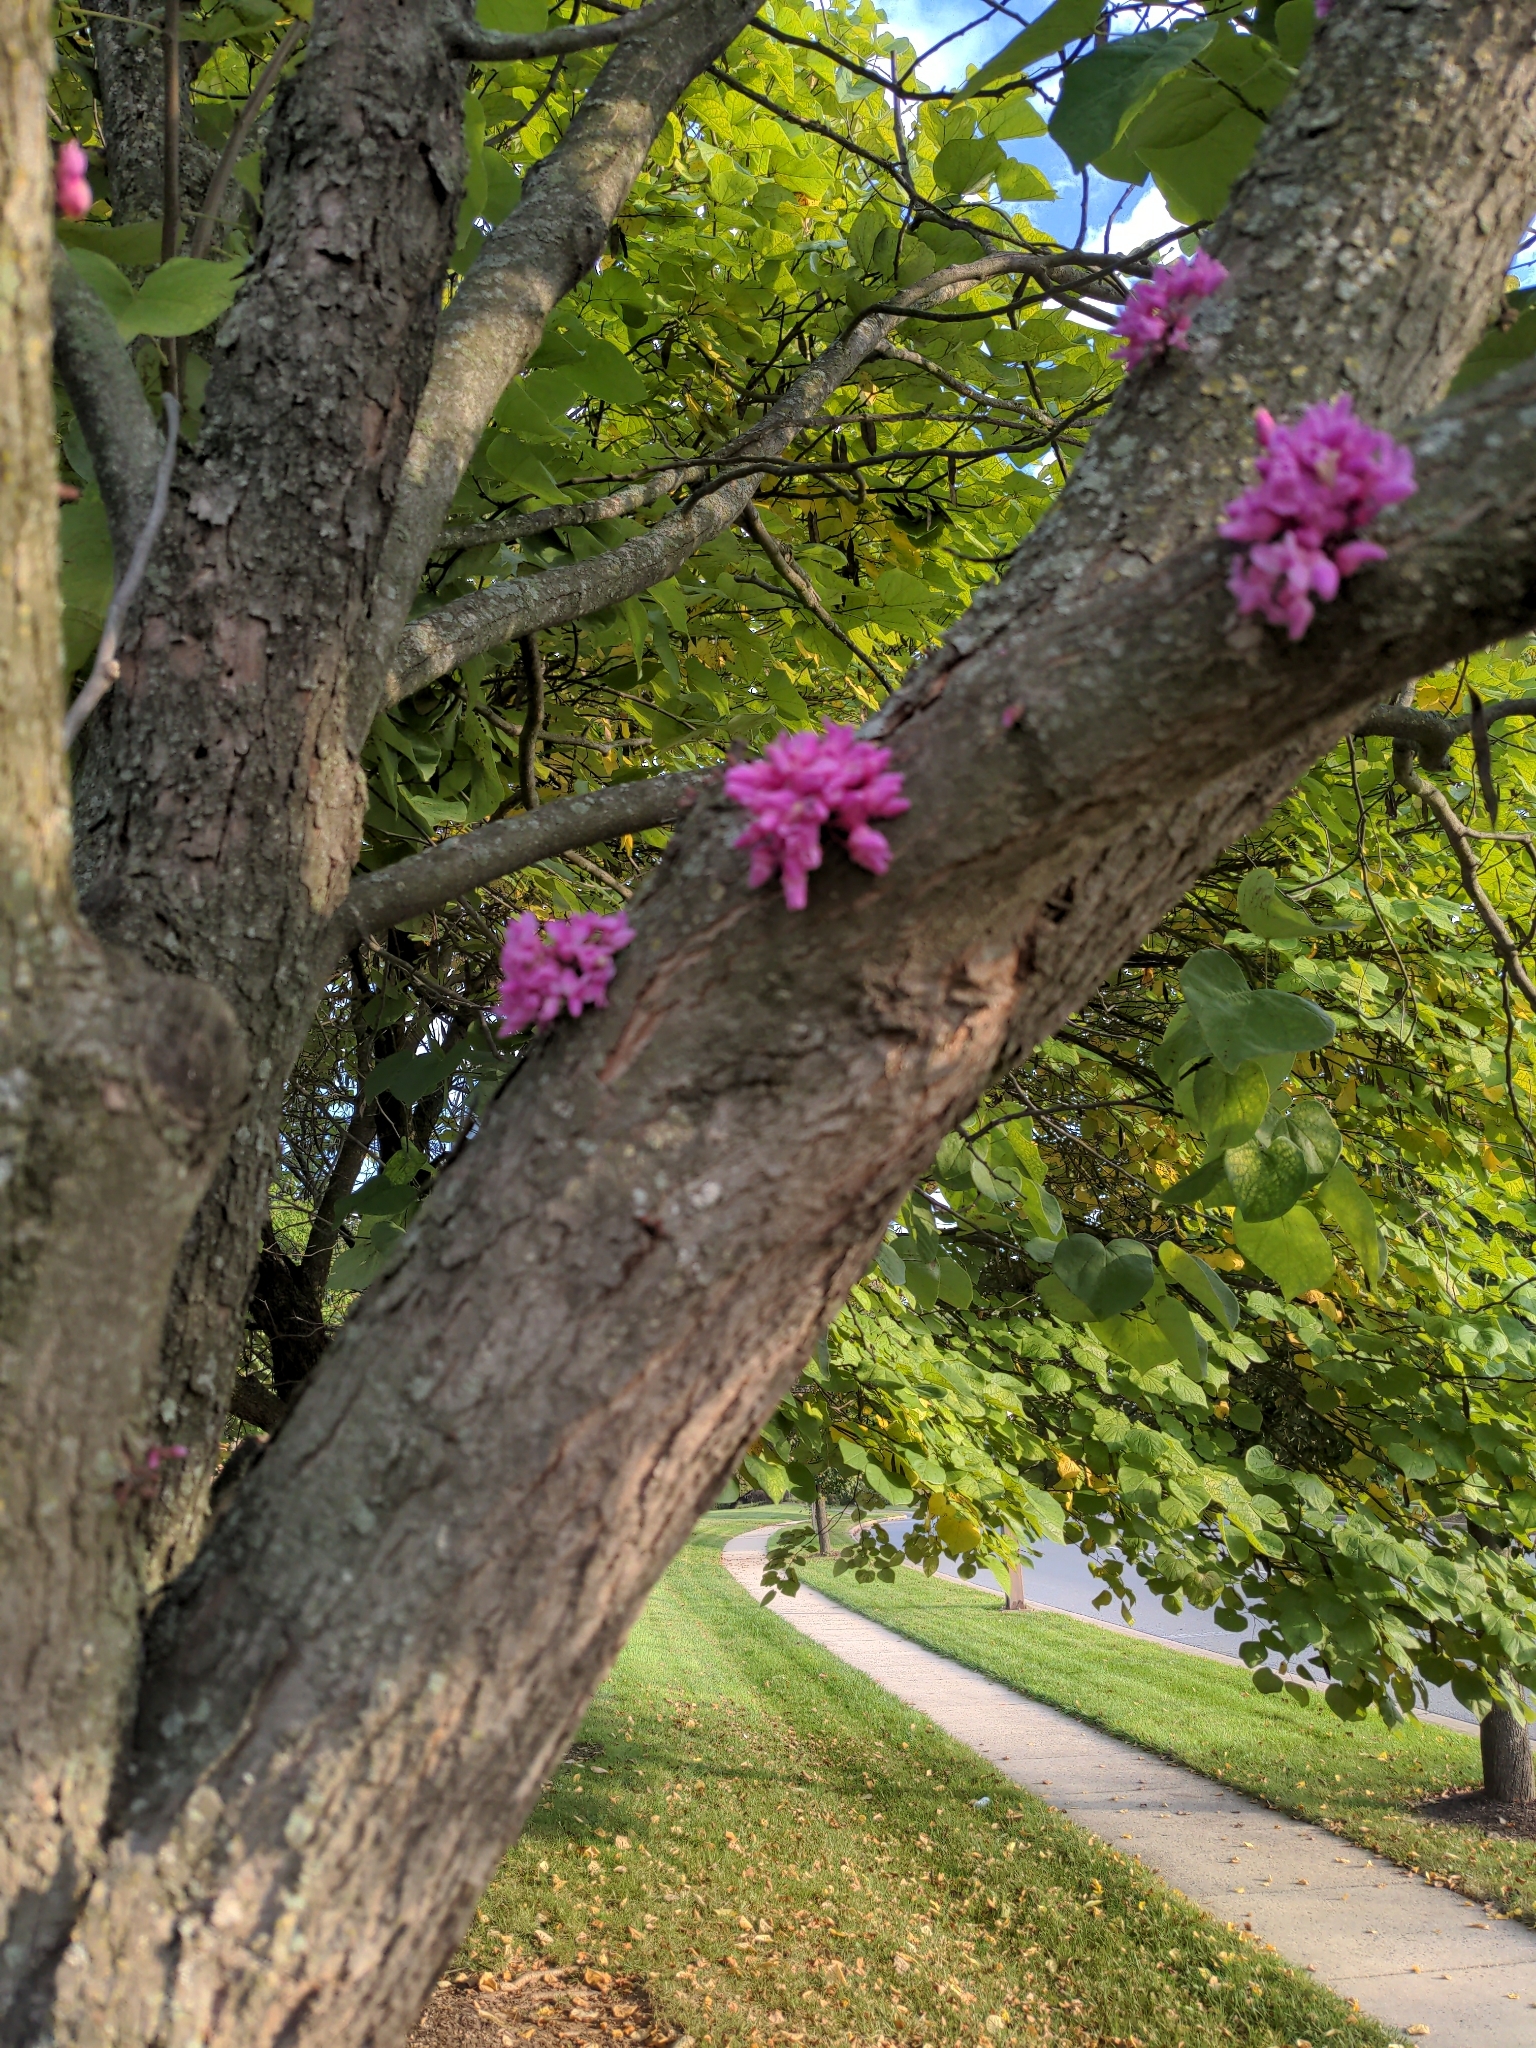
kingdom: Plantae
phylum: Tracheophyta
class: Magnoliopsida
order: Fabales
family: Fabaceae
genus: Cercis
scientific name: Cercis canadensis
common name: Eastern redbud
